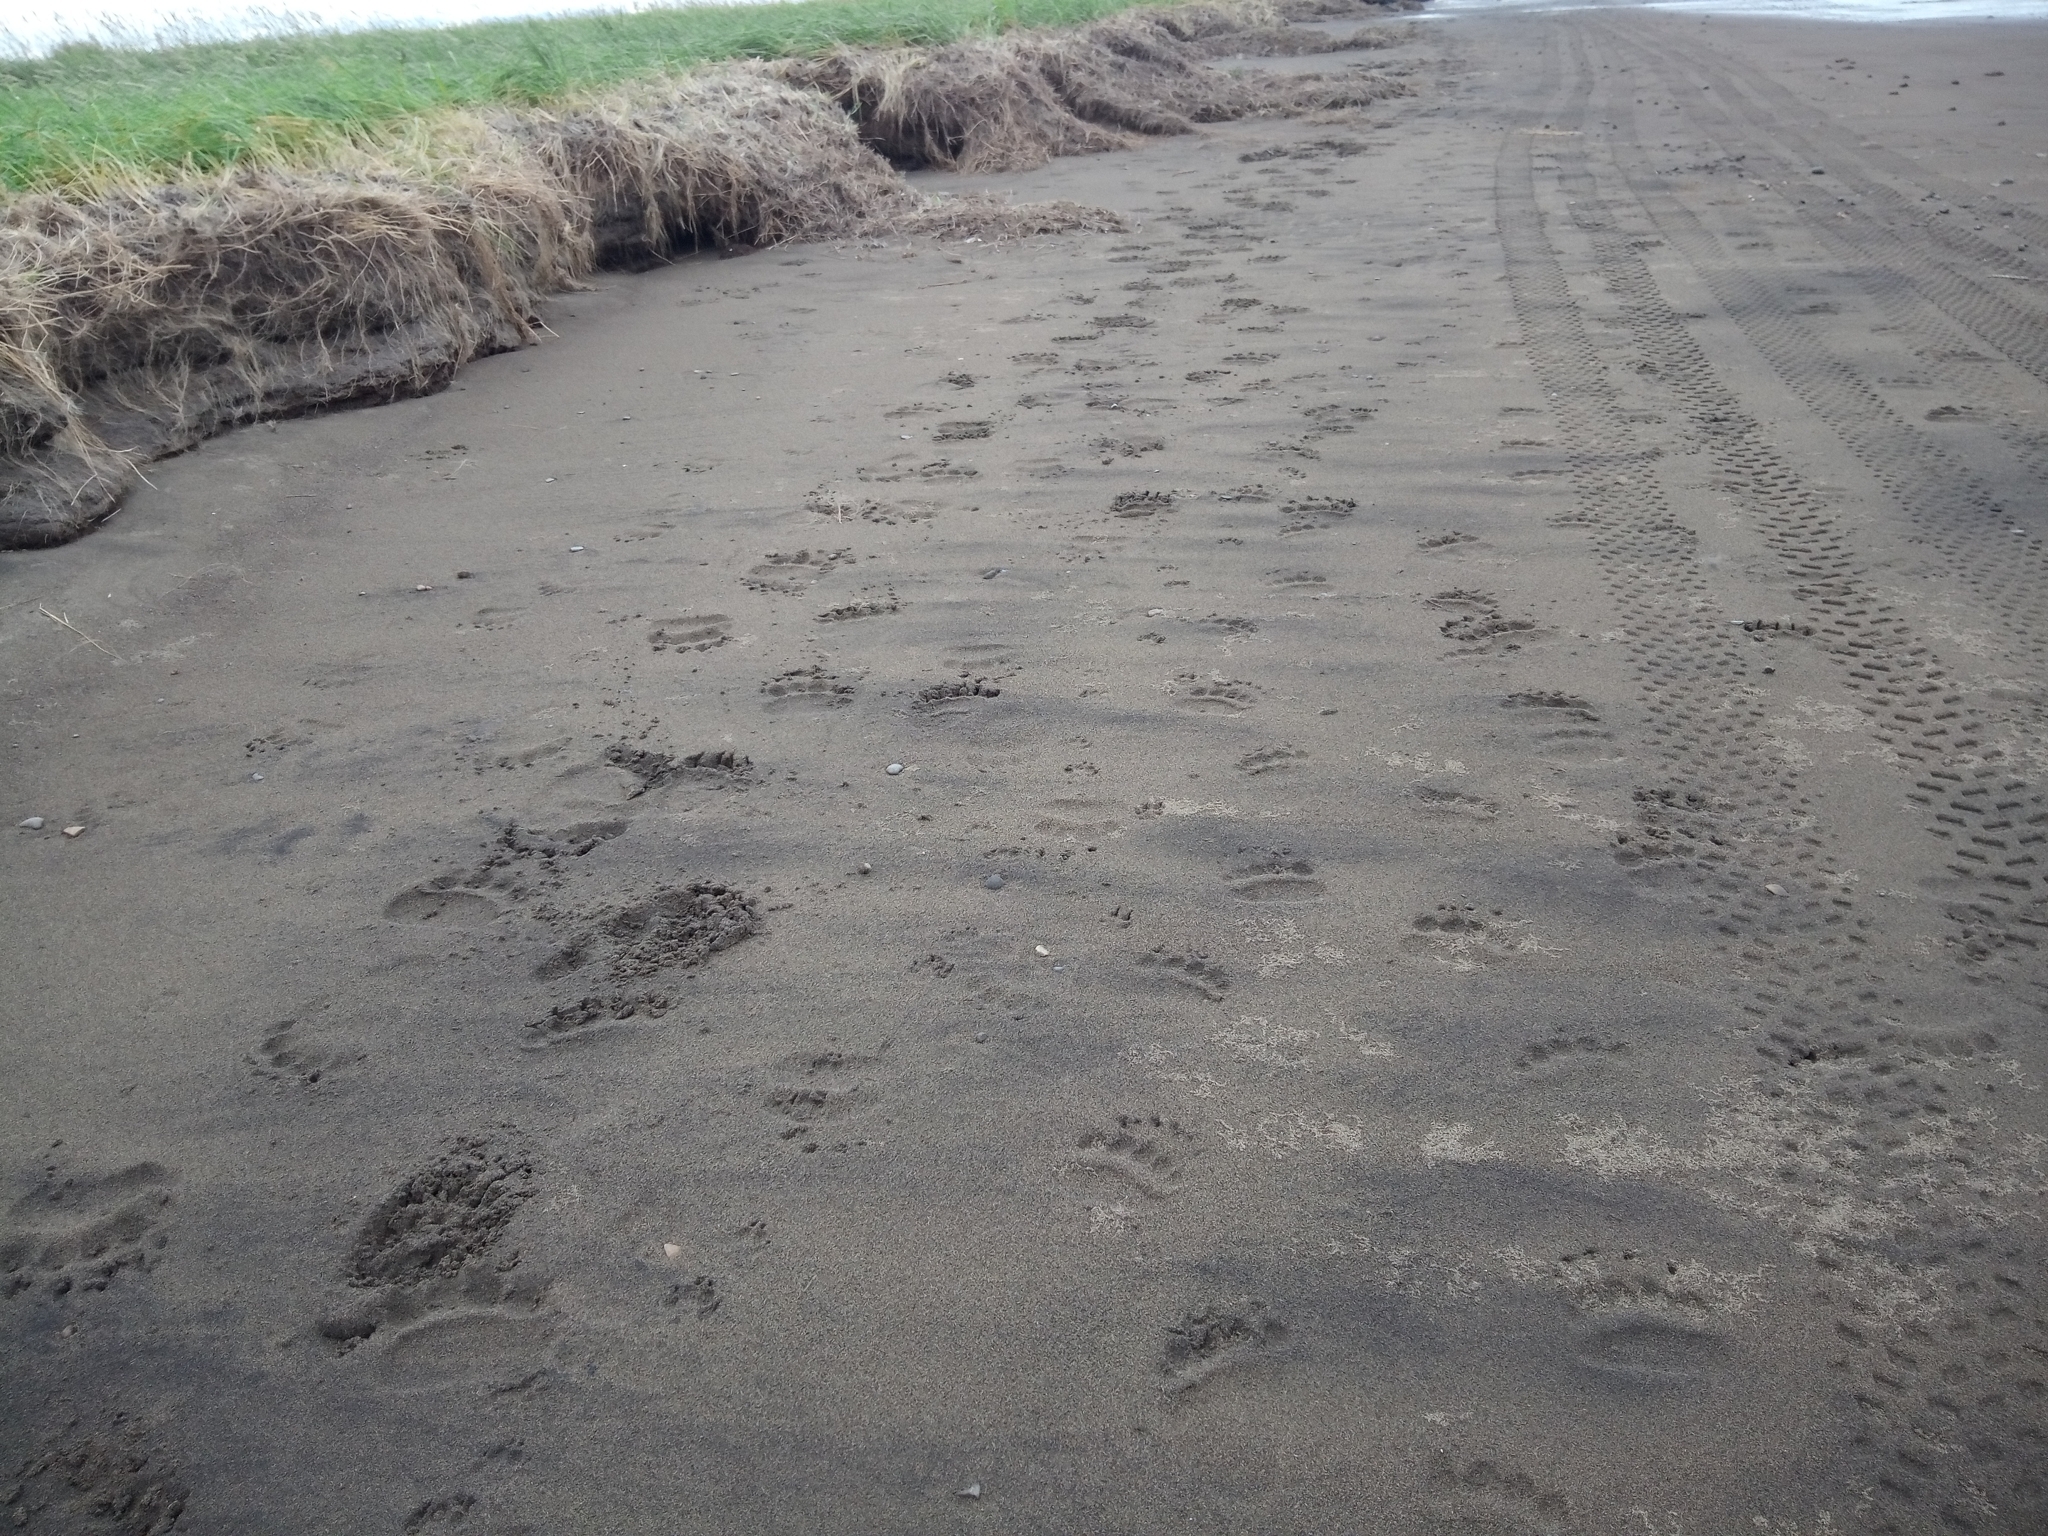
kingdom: Animalia
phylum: Chordata
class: Mammalia
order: Carnivora
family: Ursidae
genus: Ursus
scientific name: Ursus arctos
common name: Brown bear
